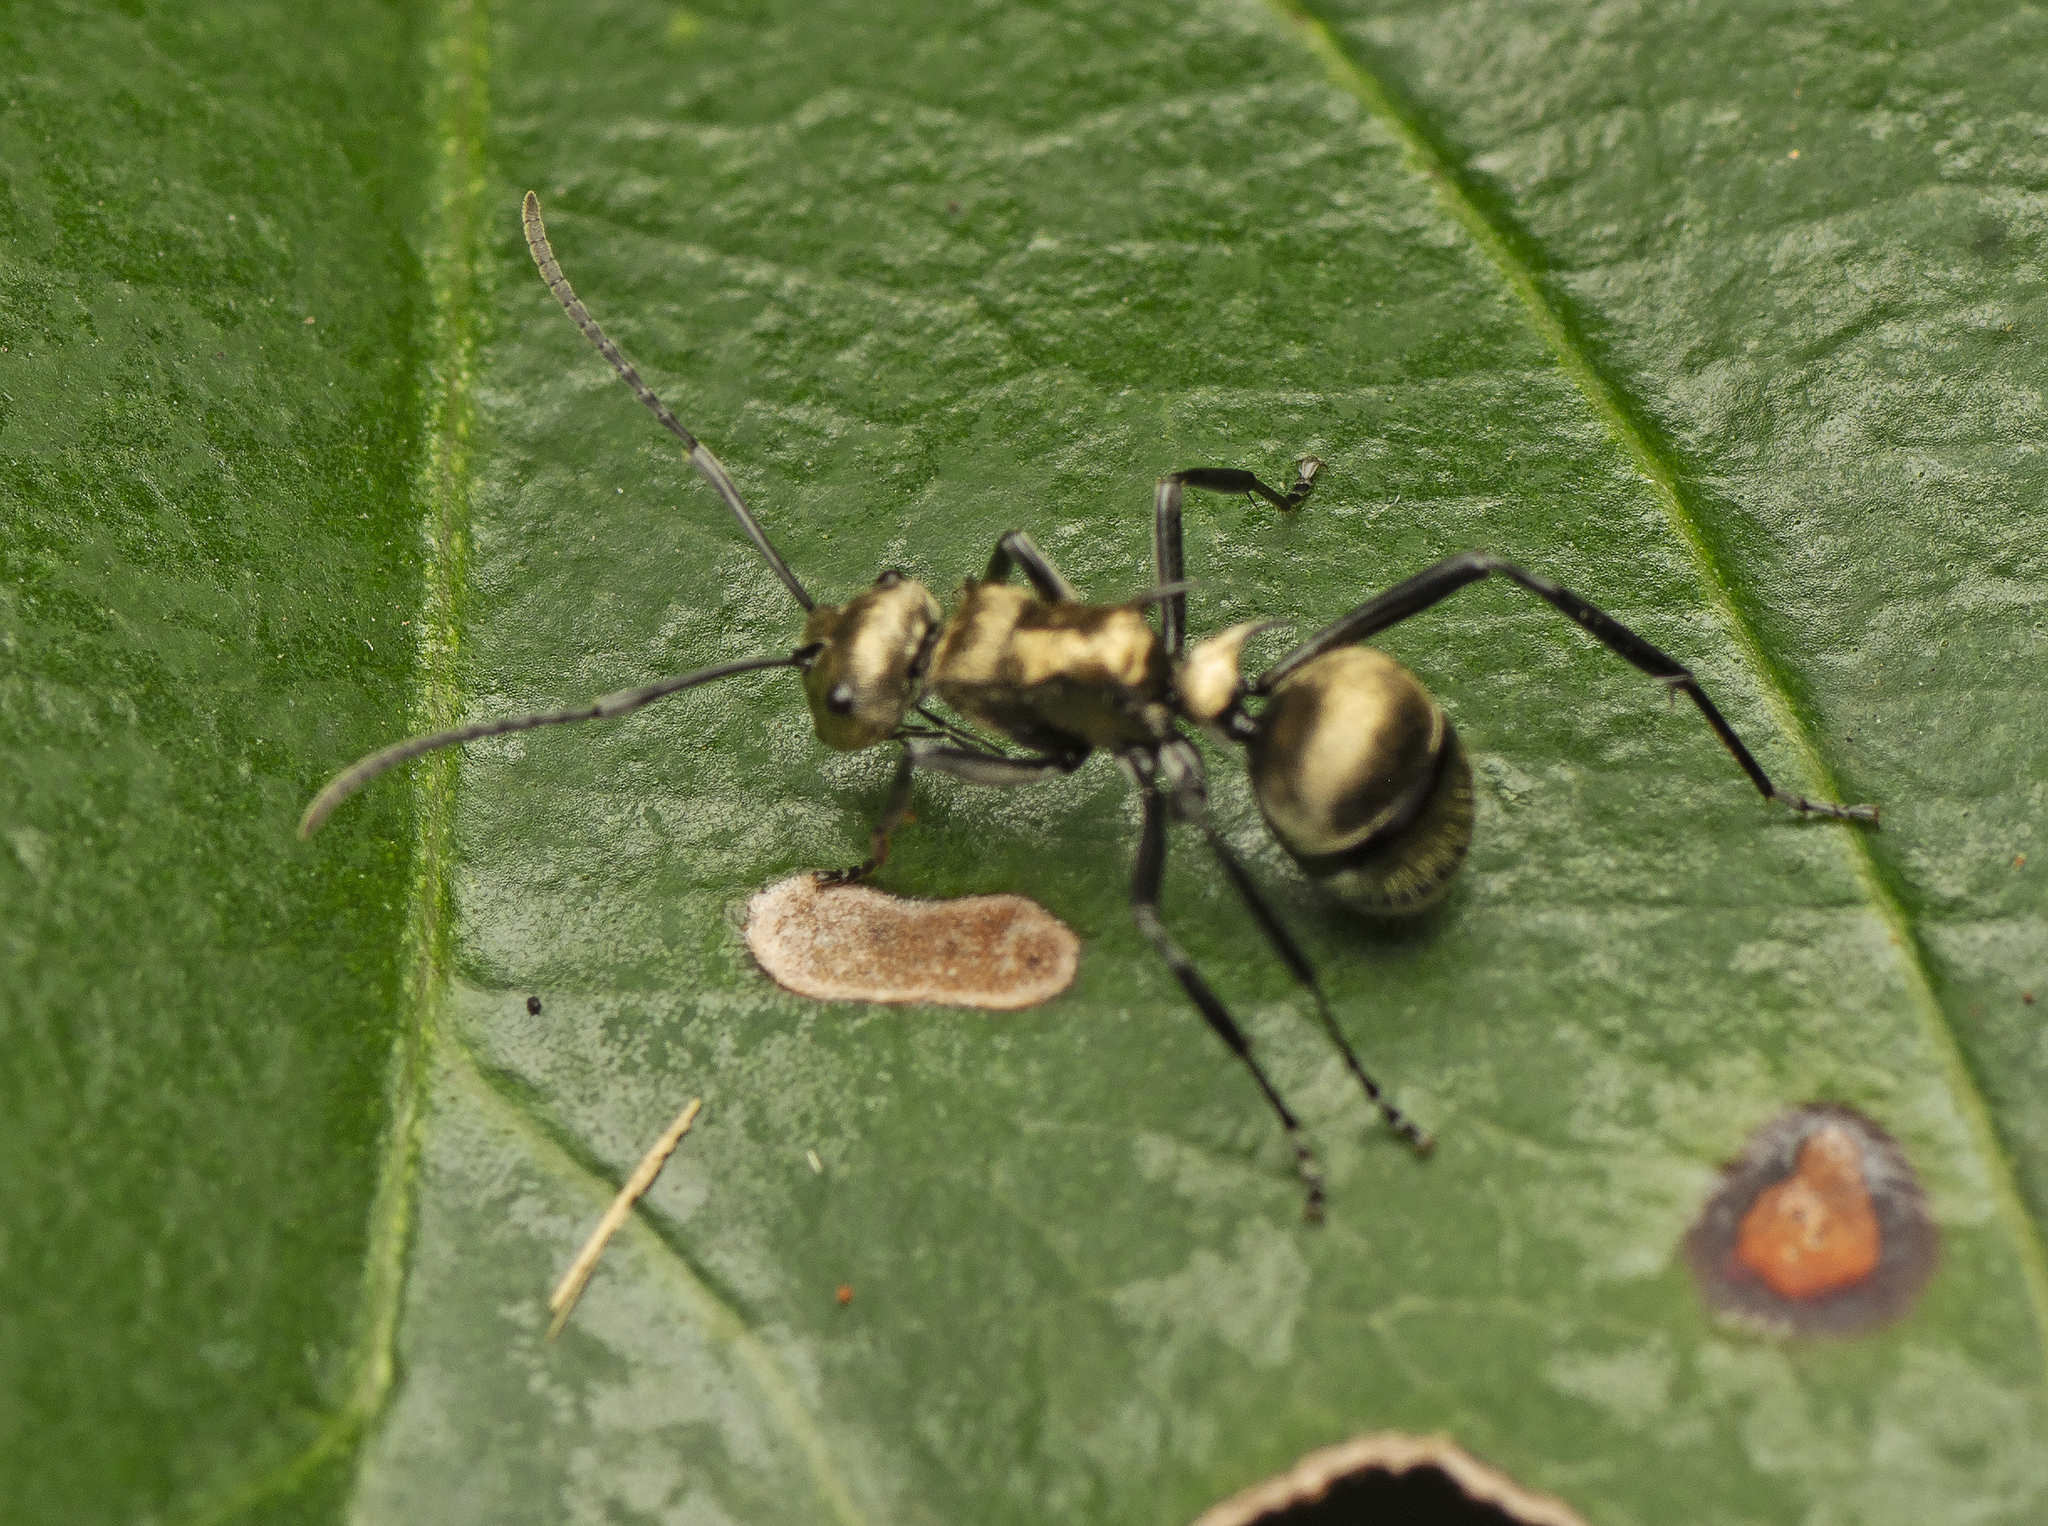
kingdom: Animalia
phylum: Arthropoda
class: Insecta
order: Hymenoptera
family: Formicidae
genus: Polyrhachis
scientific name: Polyrhachis cupreata
